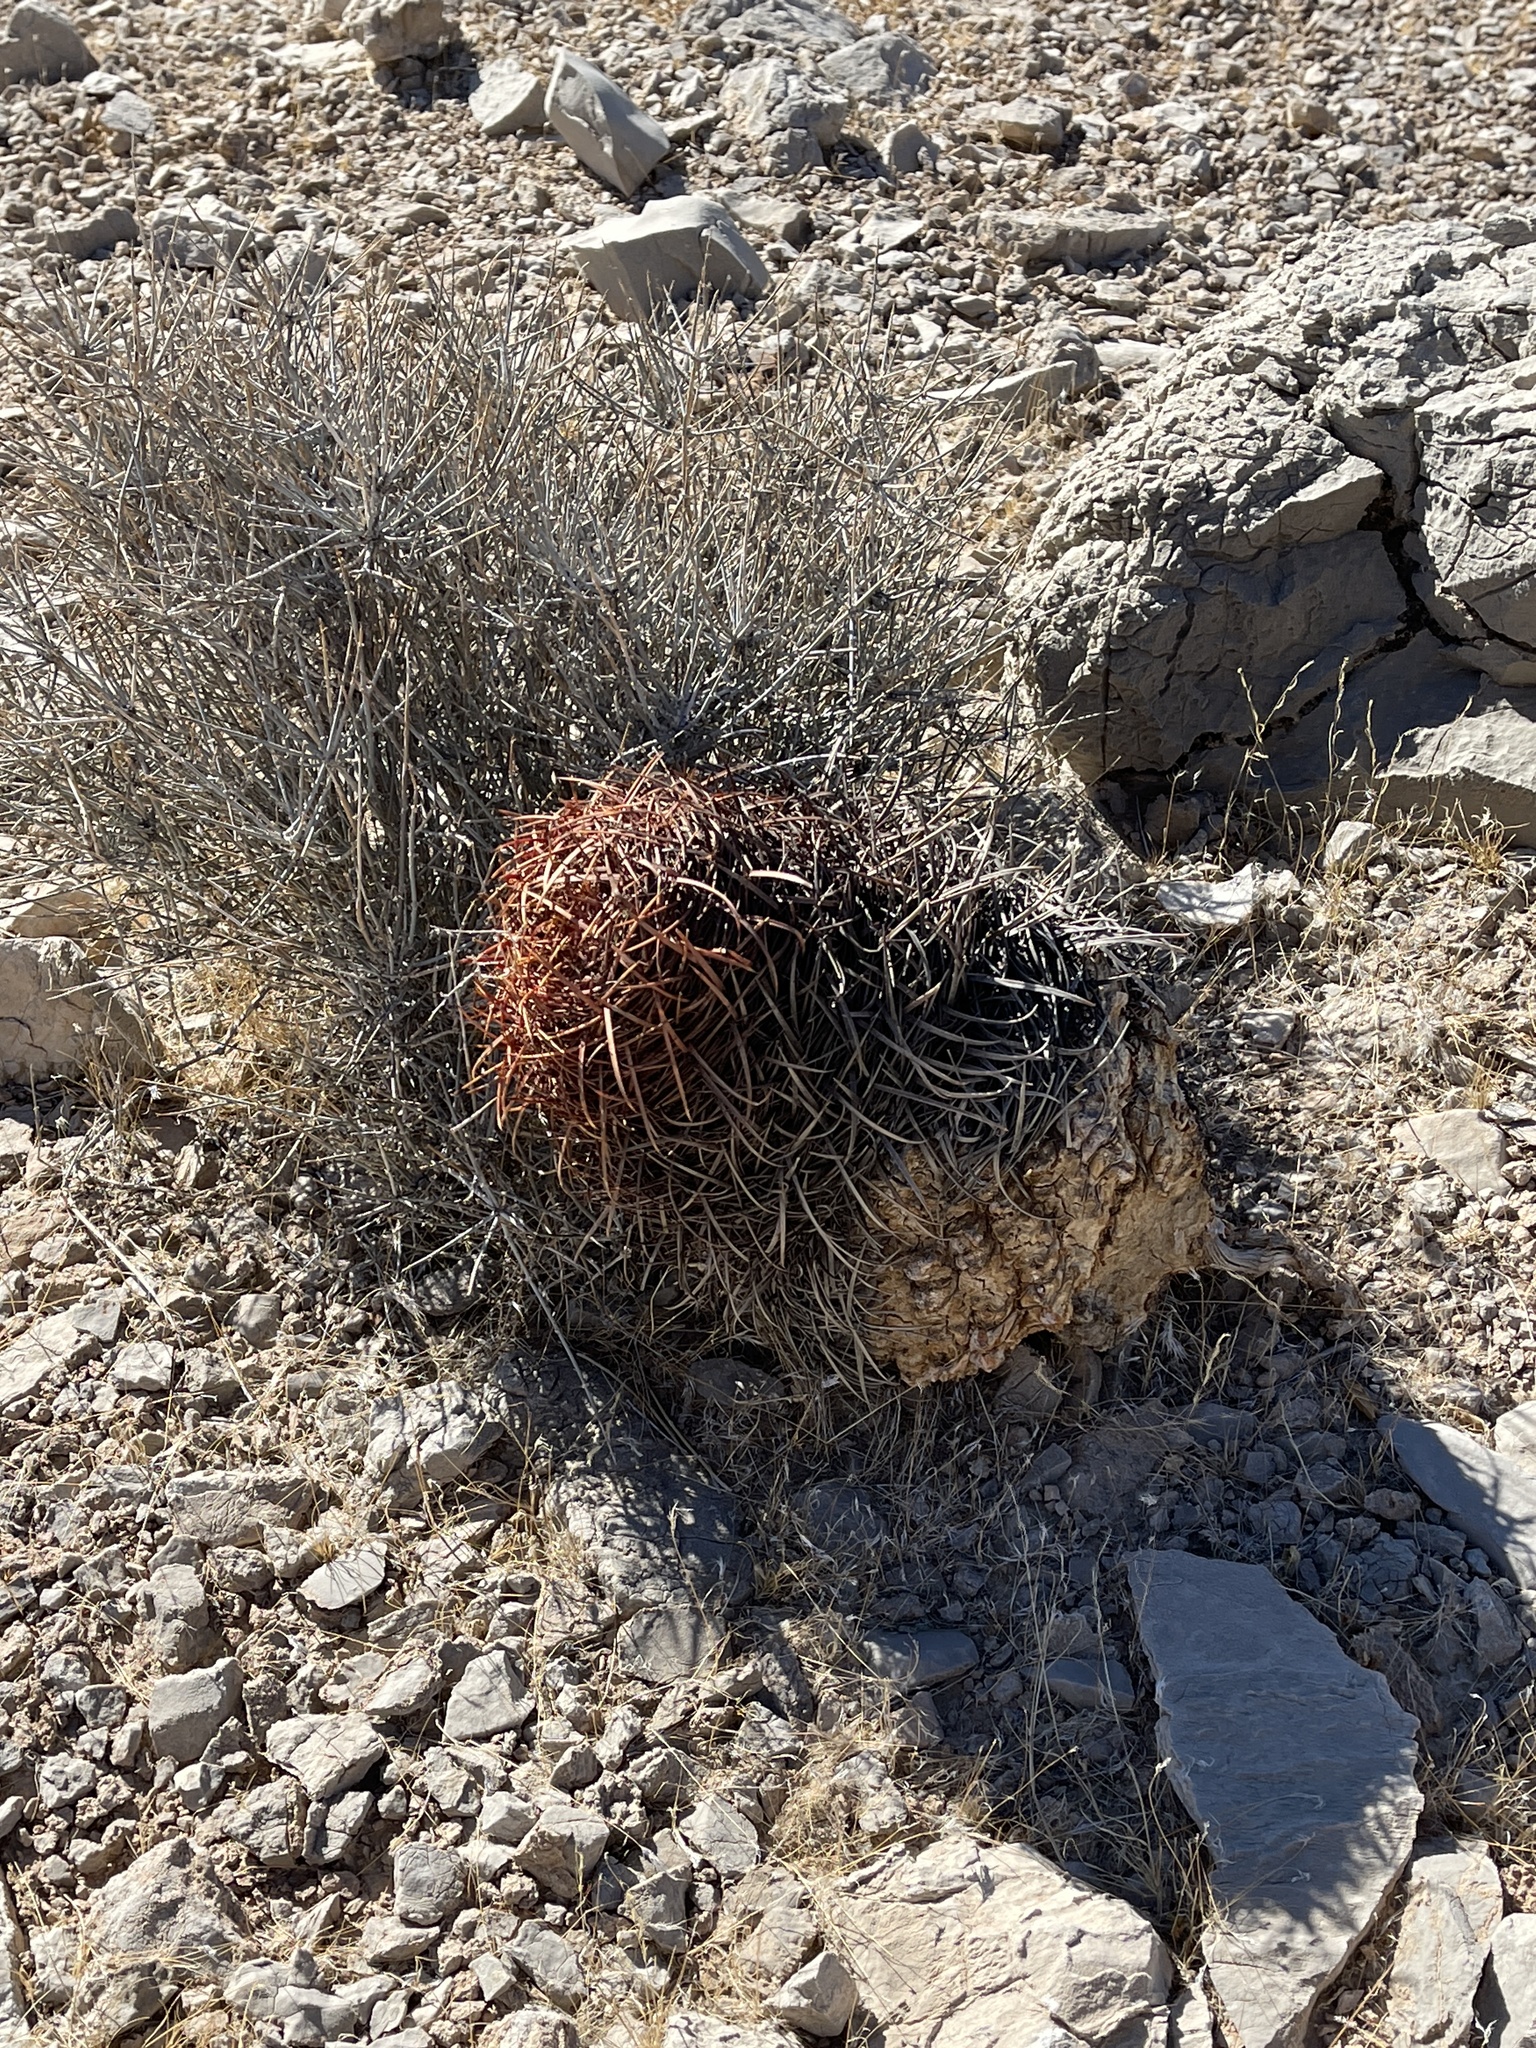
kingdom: Plantae
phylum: Tracheophyta
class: Magnoliopsida
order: Caryophyllales
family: Cactaceae
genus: Ferocactus
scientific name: Ferocactus cylindraceus
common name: California barrel cactus
